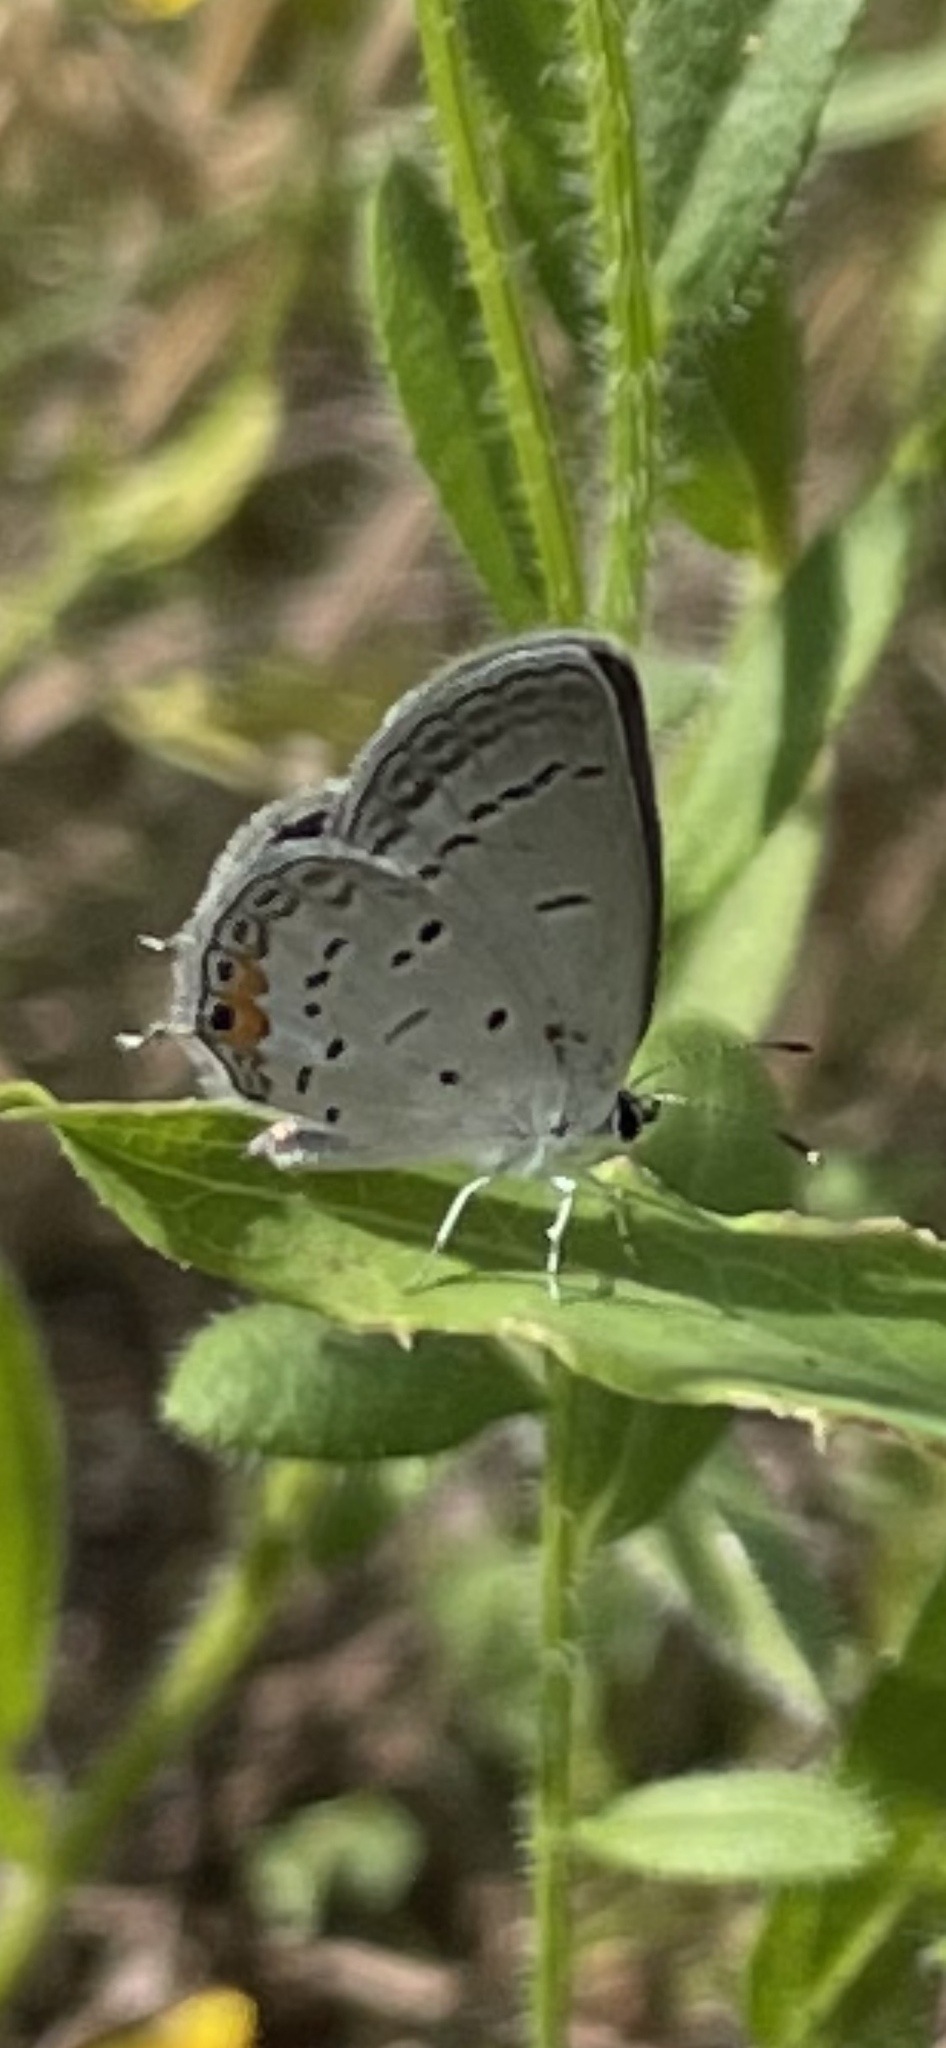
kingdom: Animalia
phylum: Arthropoda
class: Insecta
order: Lepidoptera
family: Lycaenidae
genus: Elkalyce
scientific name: Elkalyce comyntas
